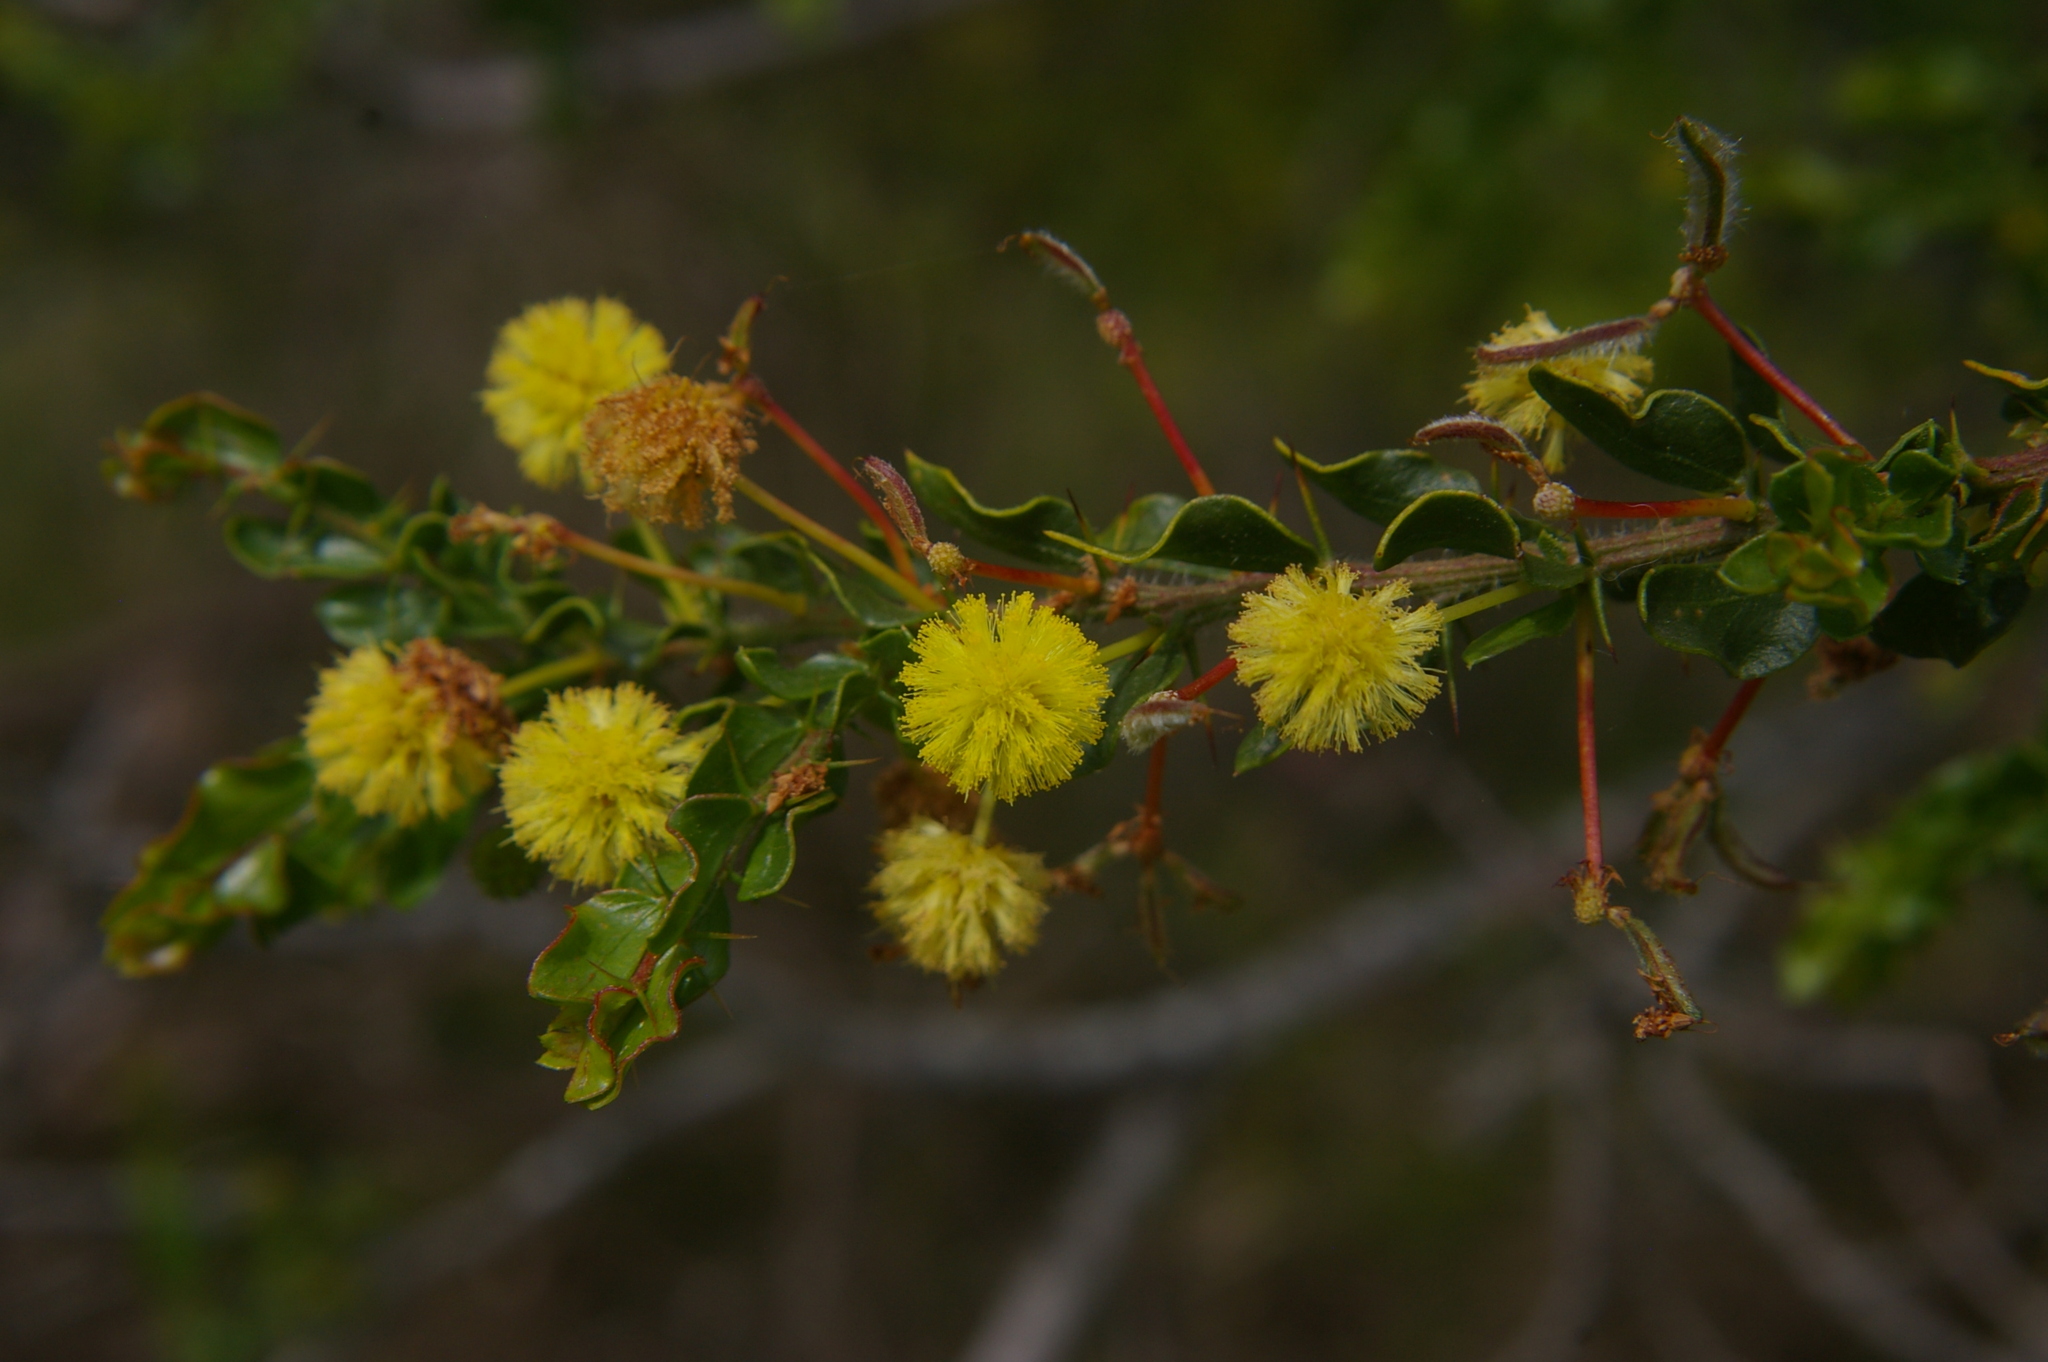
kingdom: Plantae
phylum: Tracheophyta
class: Magnoliopsida
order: Fabales
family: Fabaceae
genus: Acacia
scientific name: Acacia paradoxa
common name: Paradox acacia
